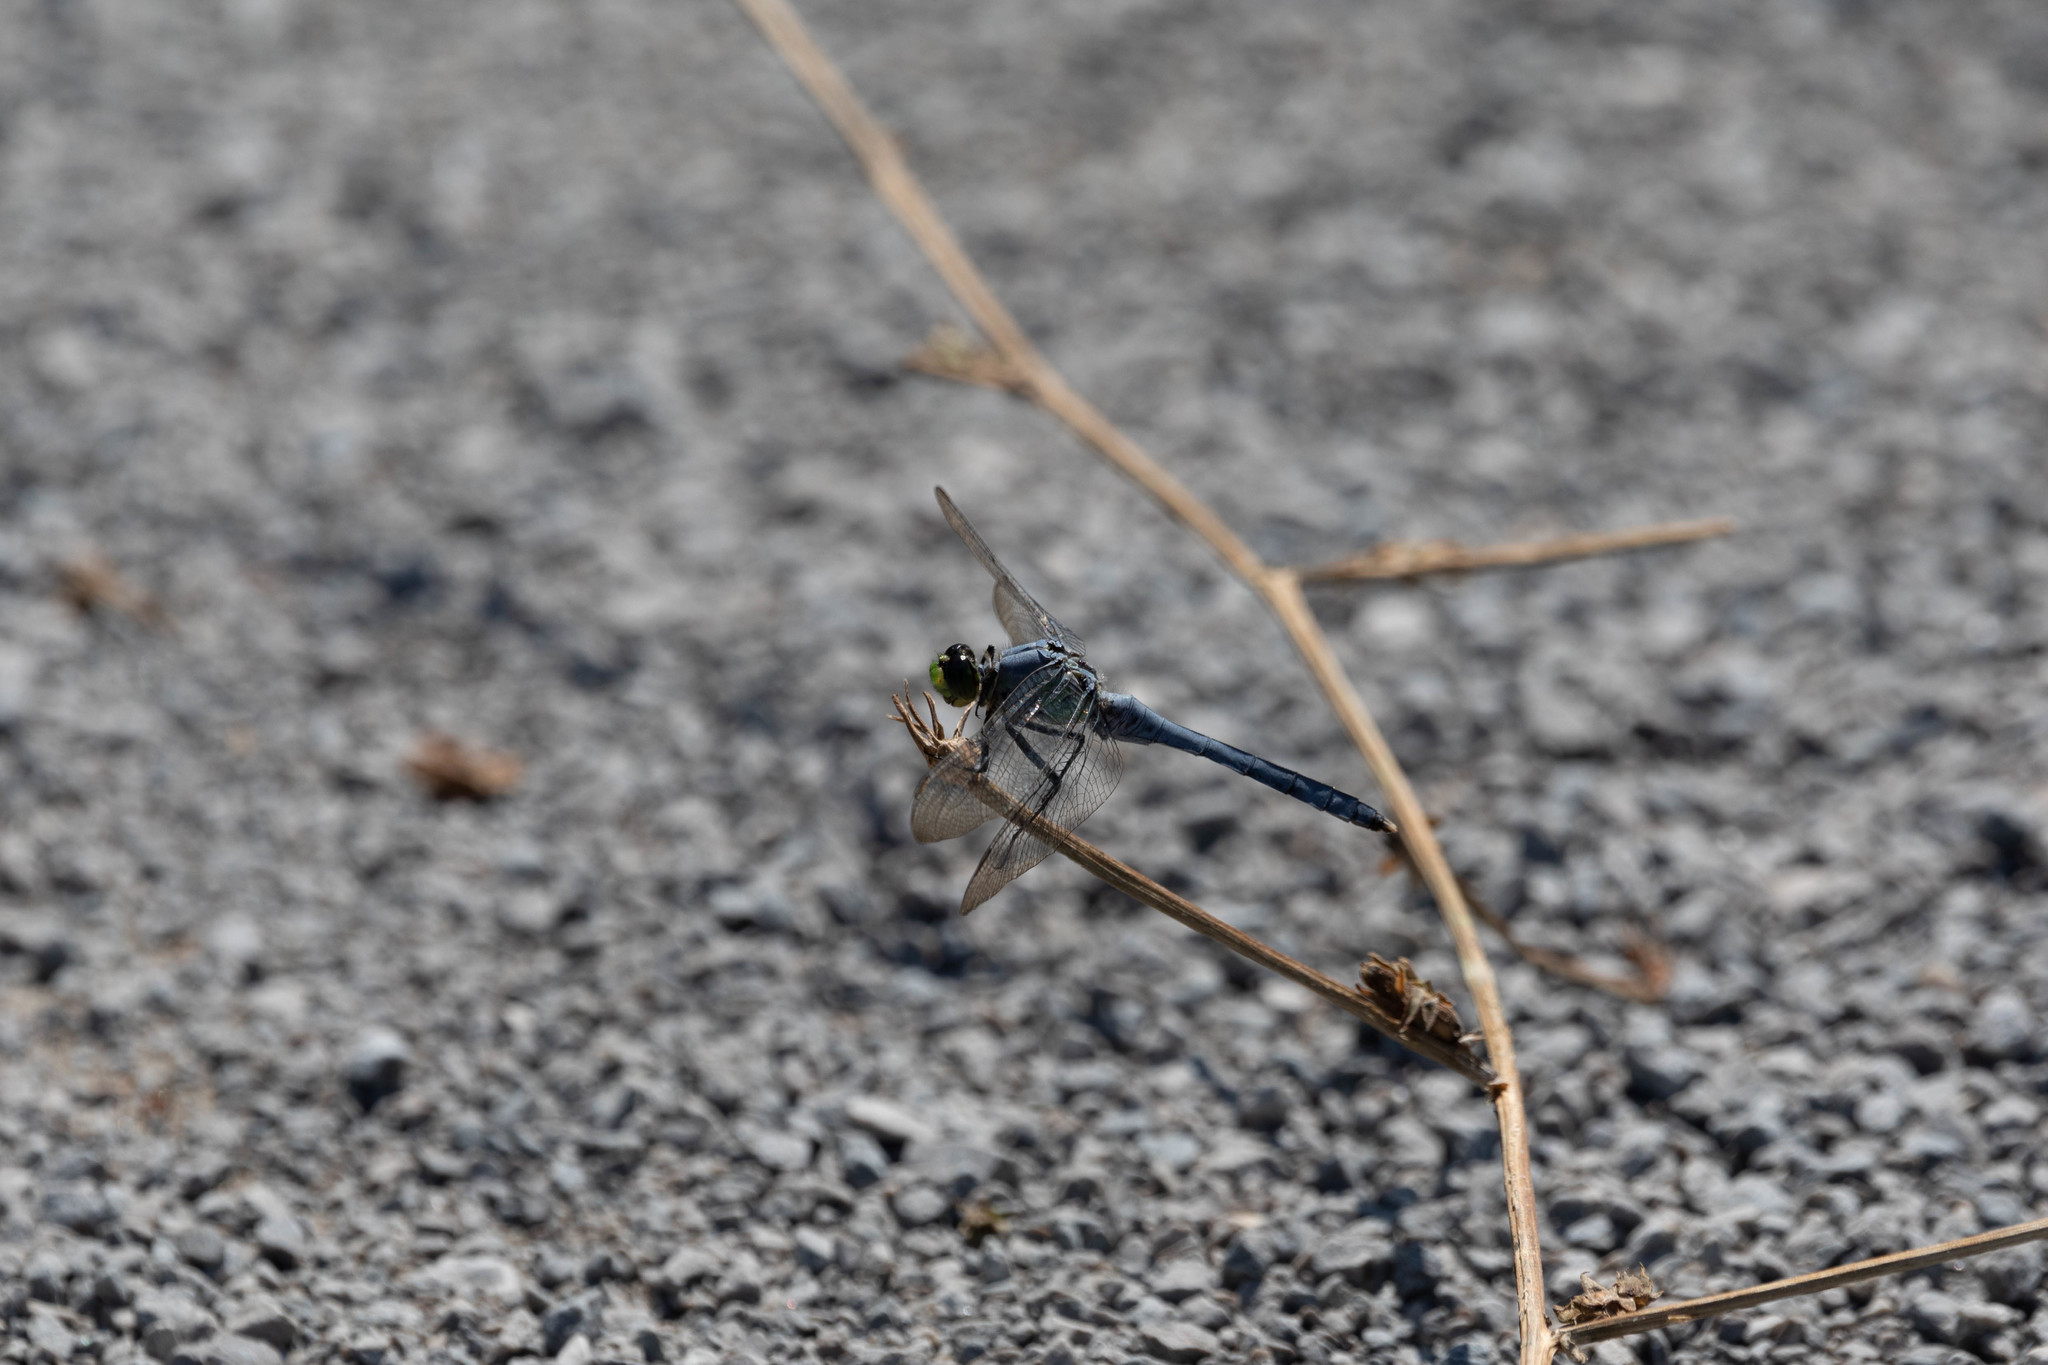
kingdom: Animalia
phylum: Arthropoda
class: Insecta
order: Odonata
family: Libellulidae
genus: Erythemis
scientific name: Erythemis simplicicollis
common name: Eastern pondhawk
